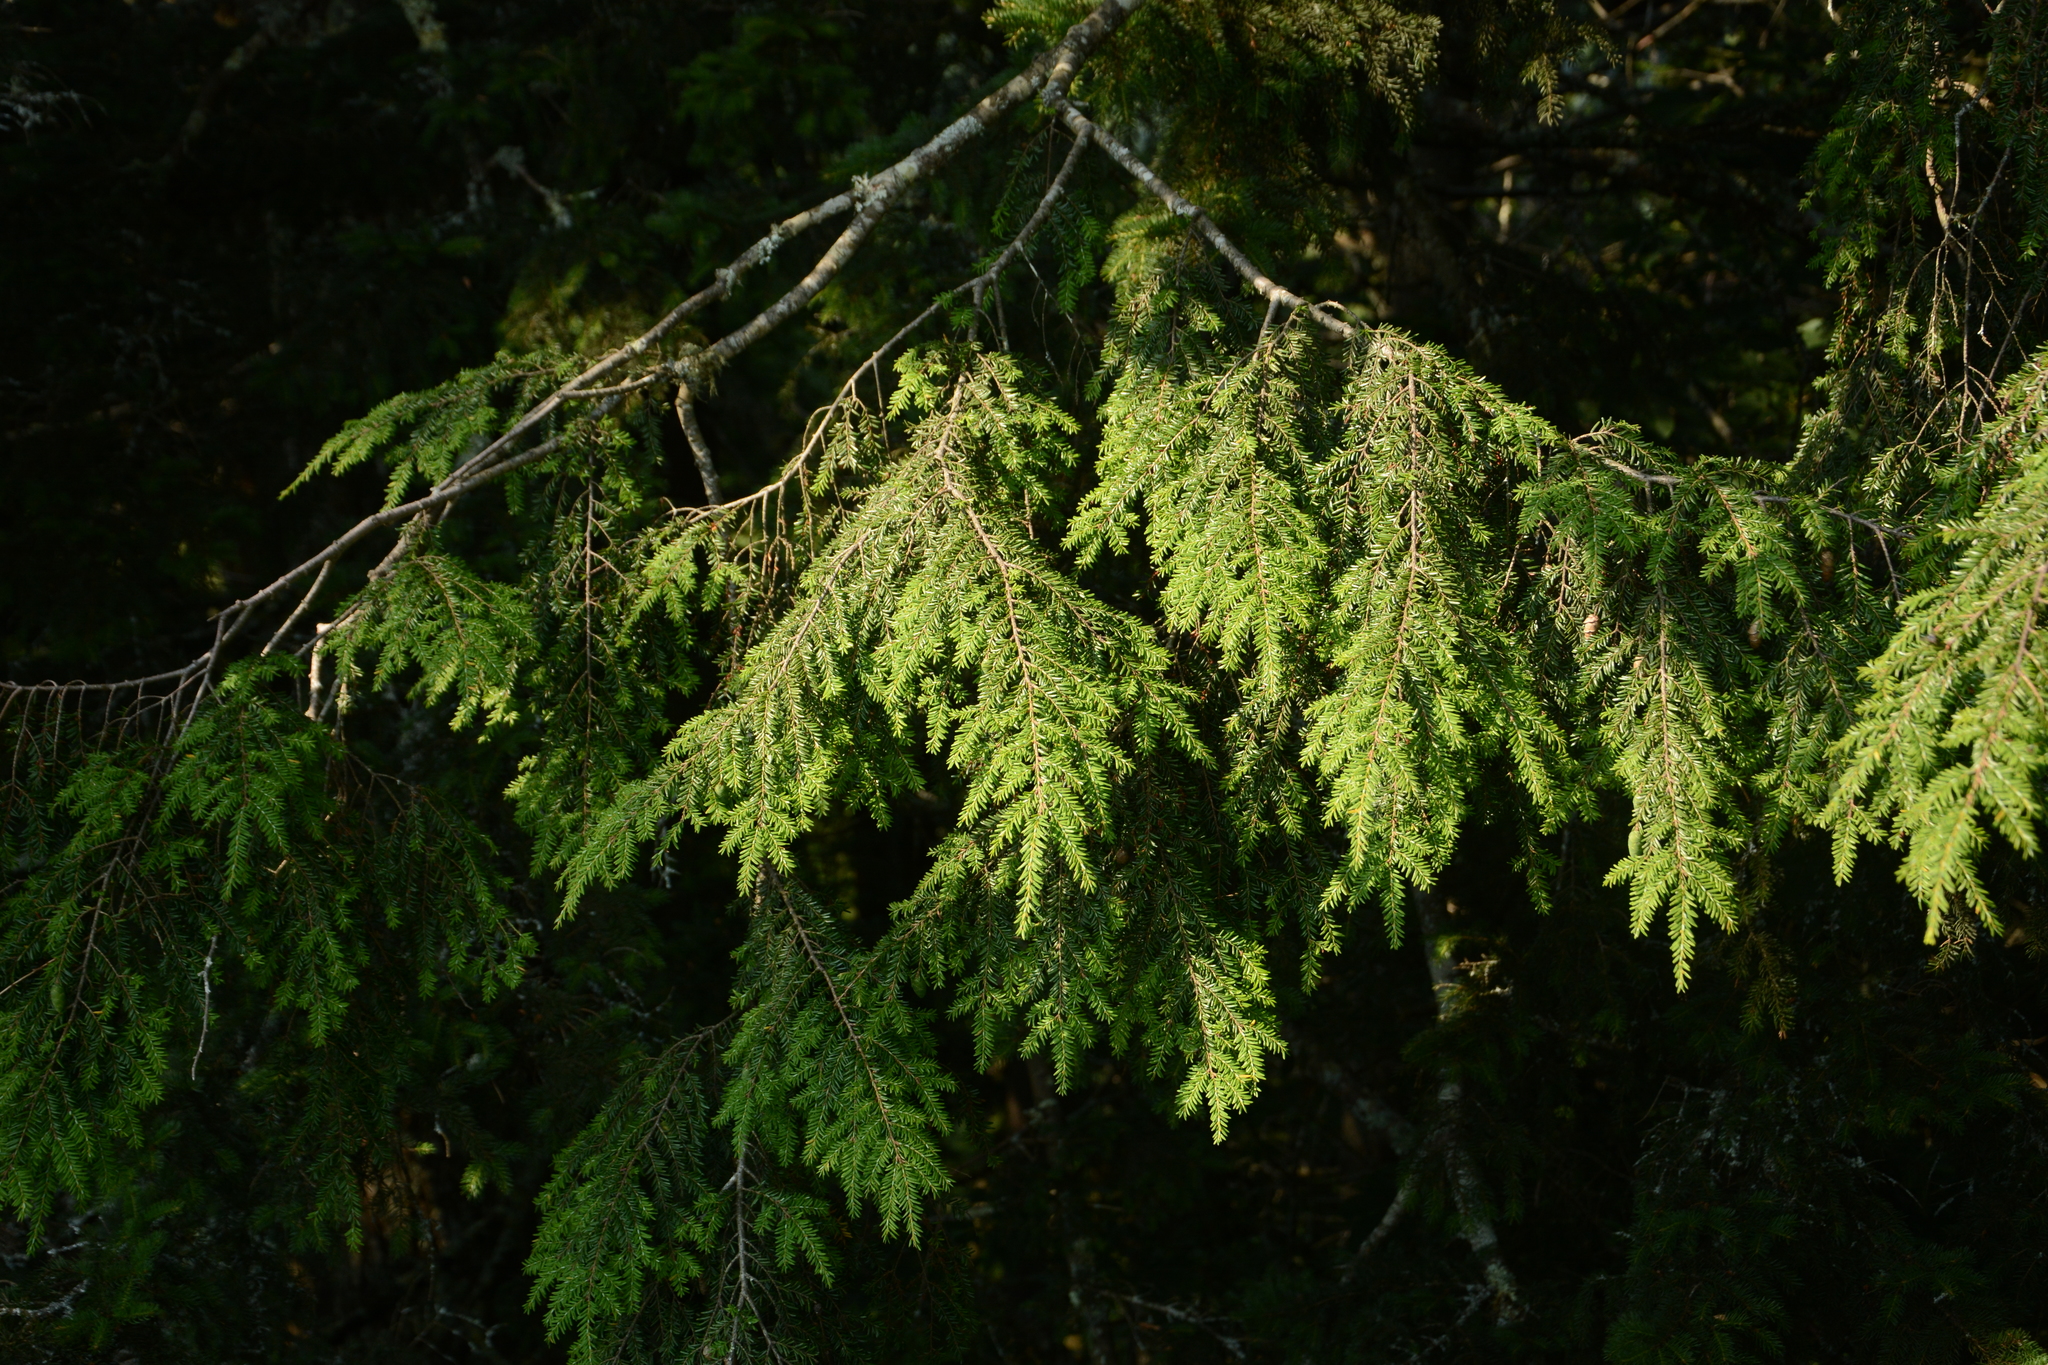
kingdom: Plantae
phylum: Tracheophyta
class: Pinopsida
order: Pinales
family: Pinaceae
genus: Tsuga
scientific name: Tsuga canadensis
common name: Eastern hemlock
